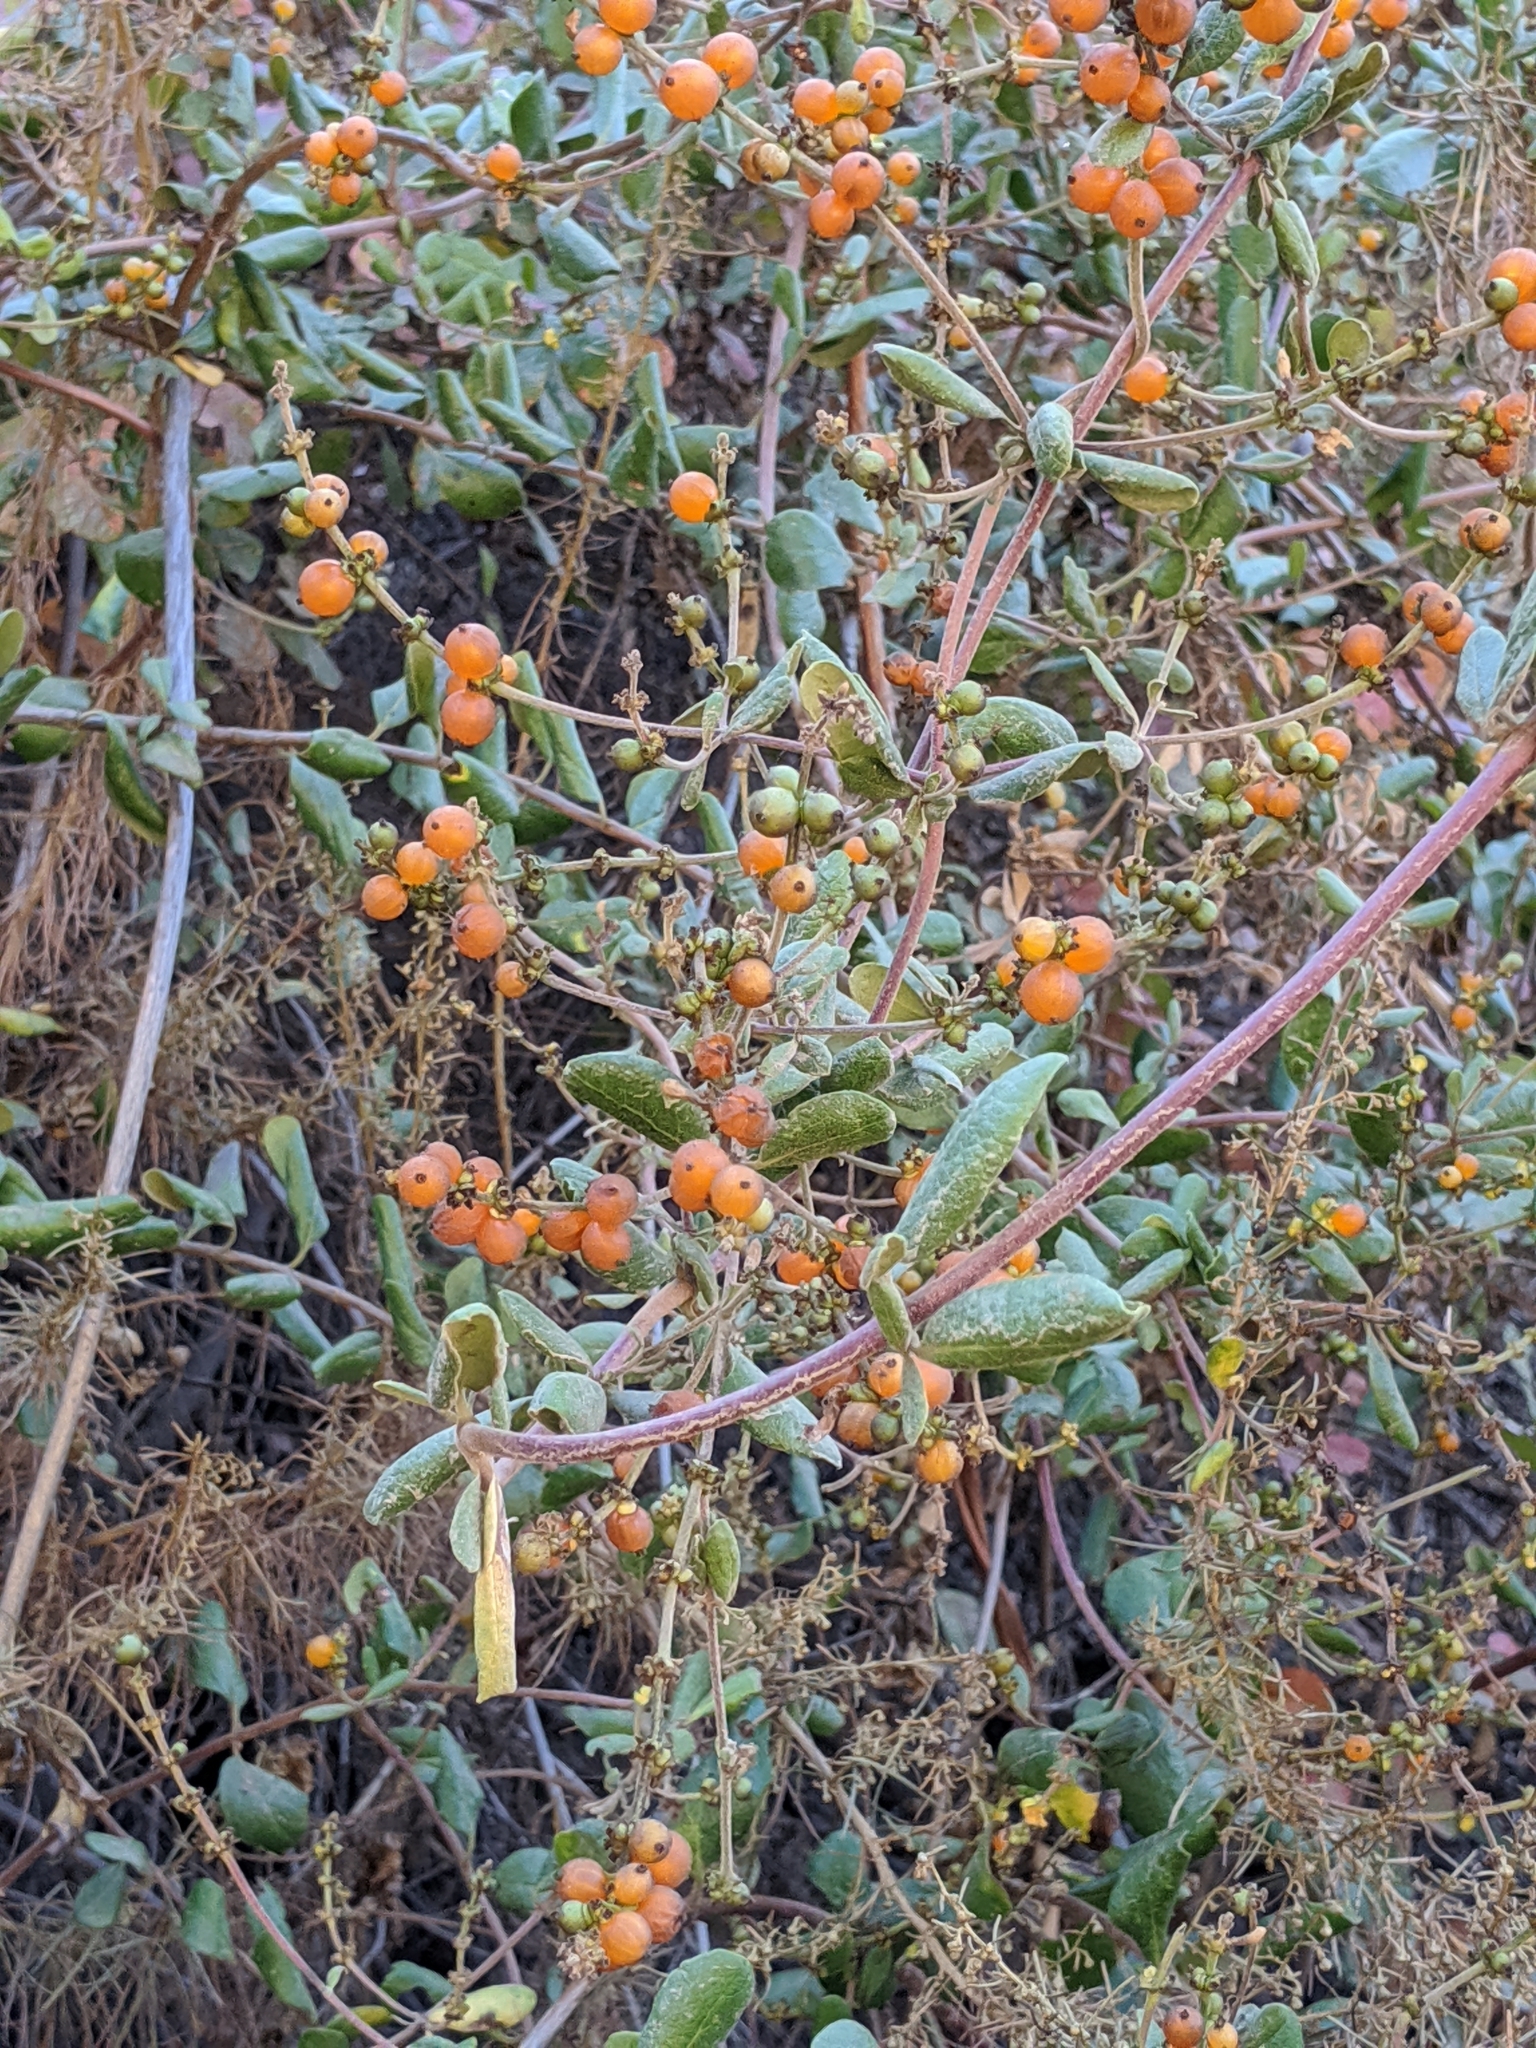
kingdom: Plantae
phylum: Tracheophyta
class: Magnoliopsida
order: Dipsacales
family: Caprifoliaceae
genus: Lonicera
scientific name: Lonicera subspicata
